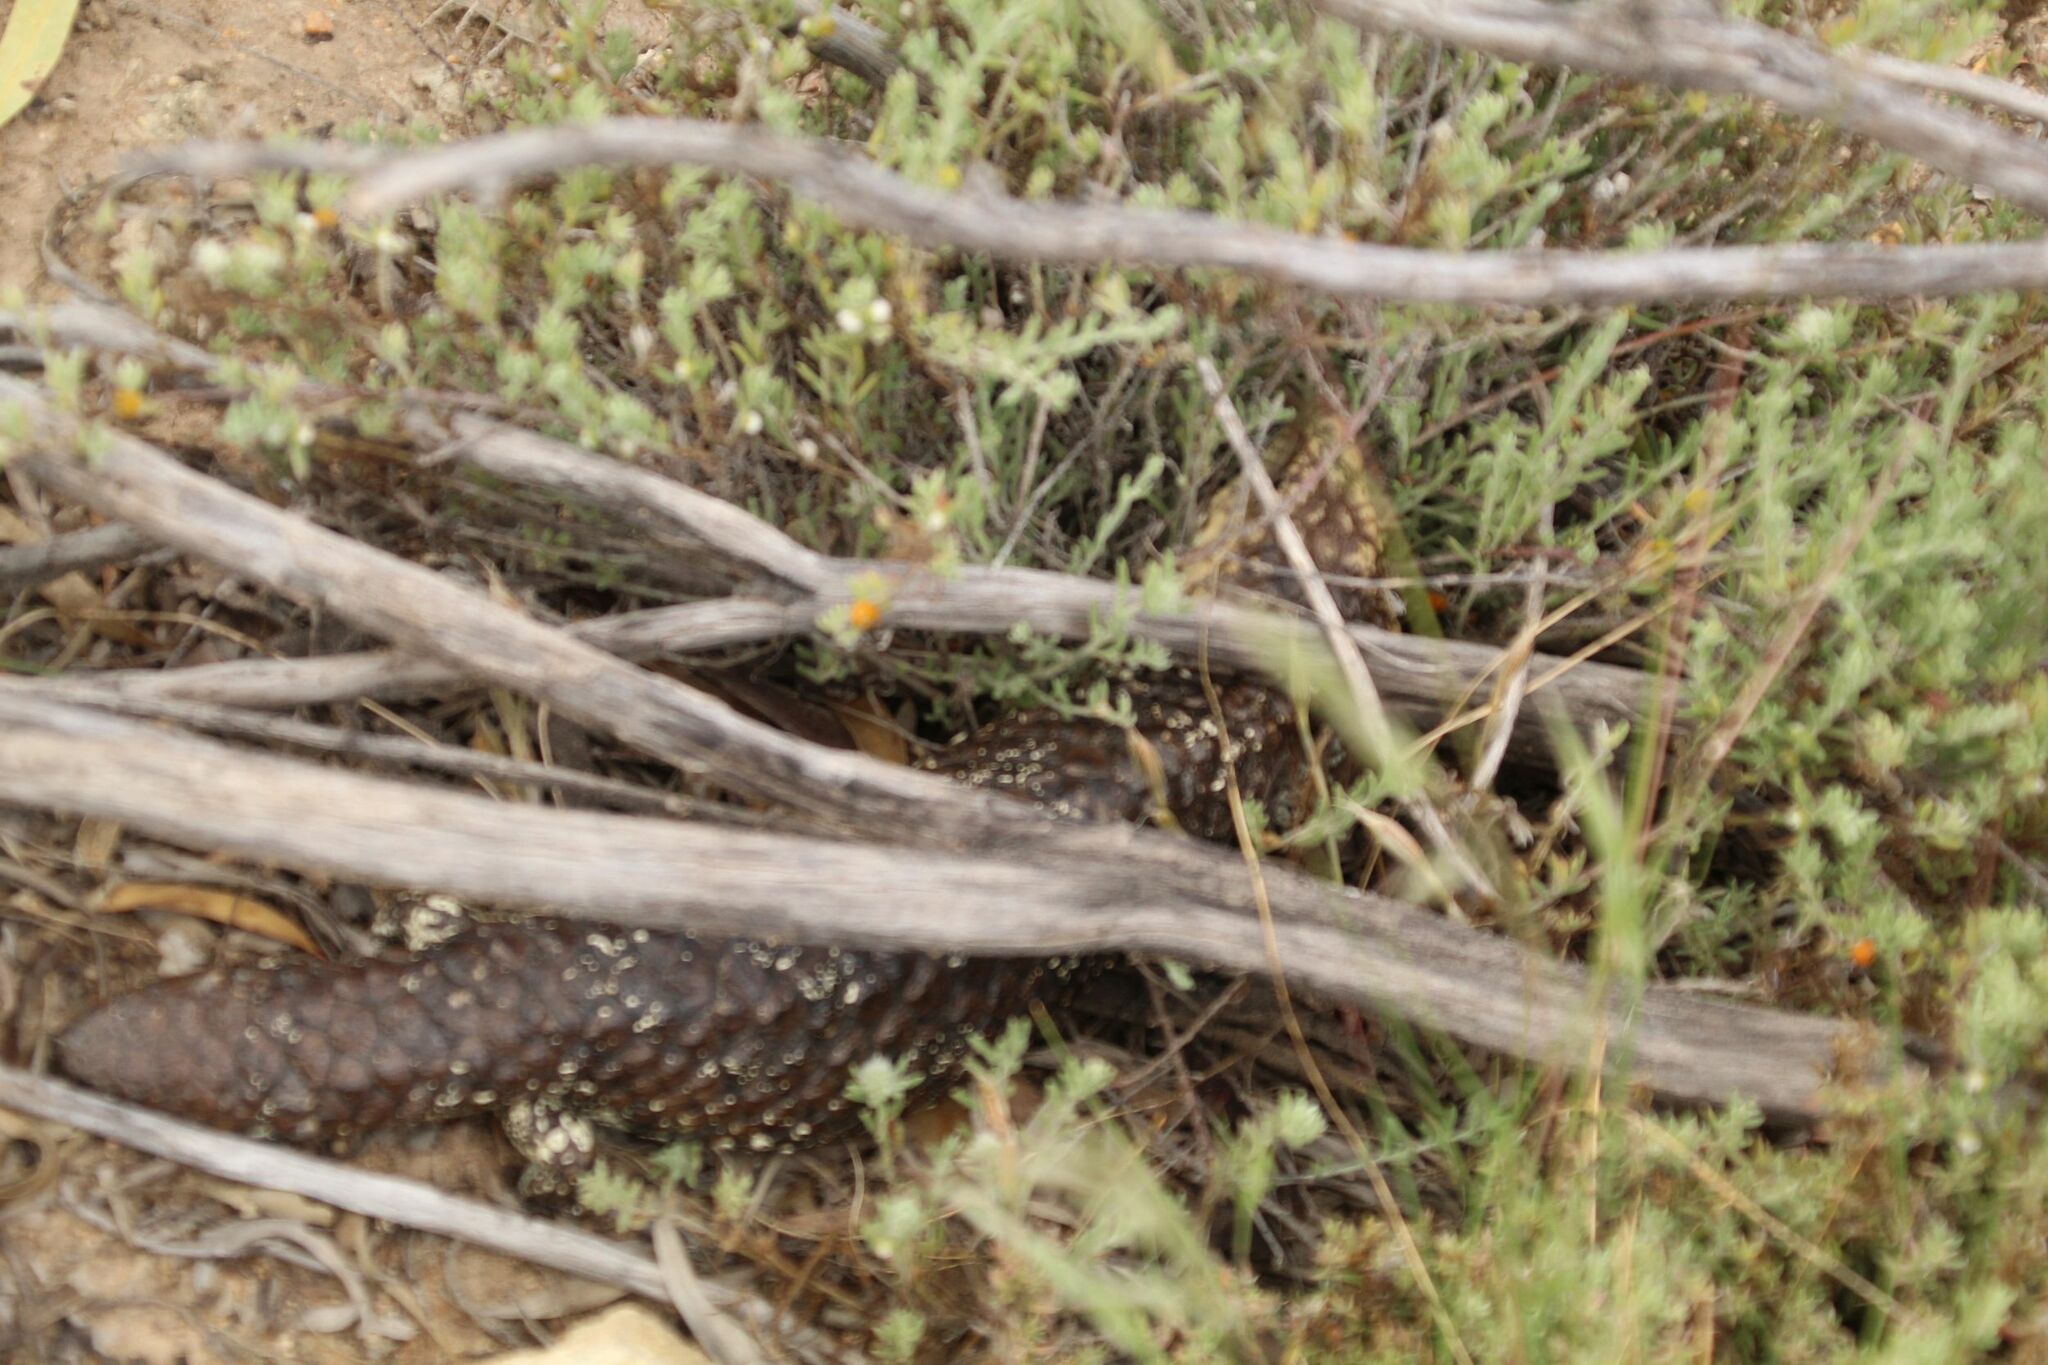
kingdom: Animalia
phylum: Chordata
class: Squamata
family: Scincidae
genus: Tiliqua
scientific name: Tiliqua rugosa
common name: Pinecone lizard
